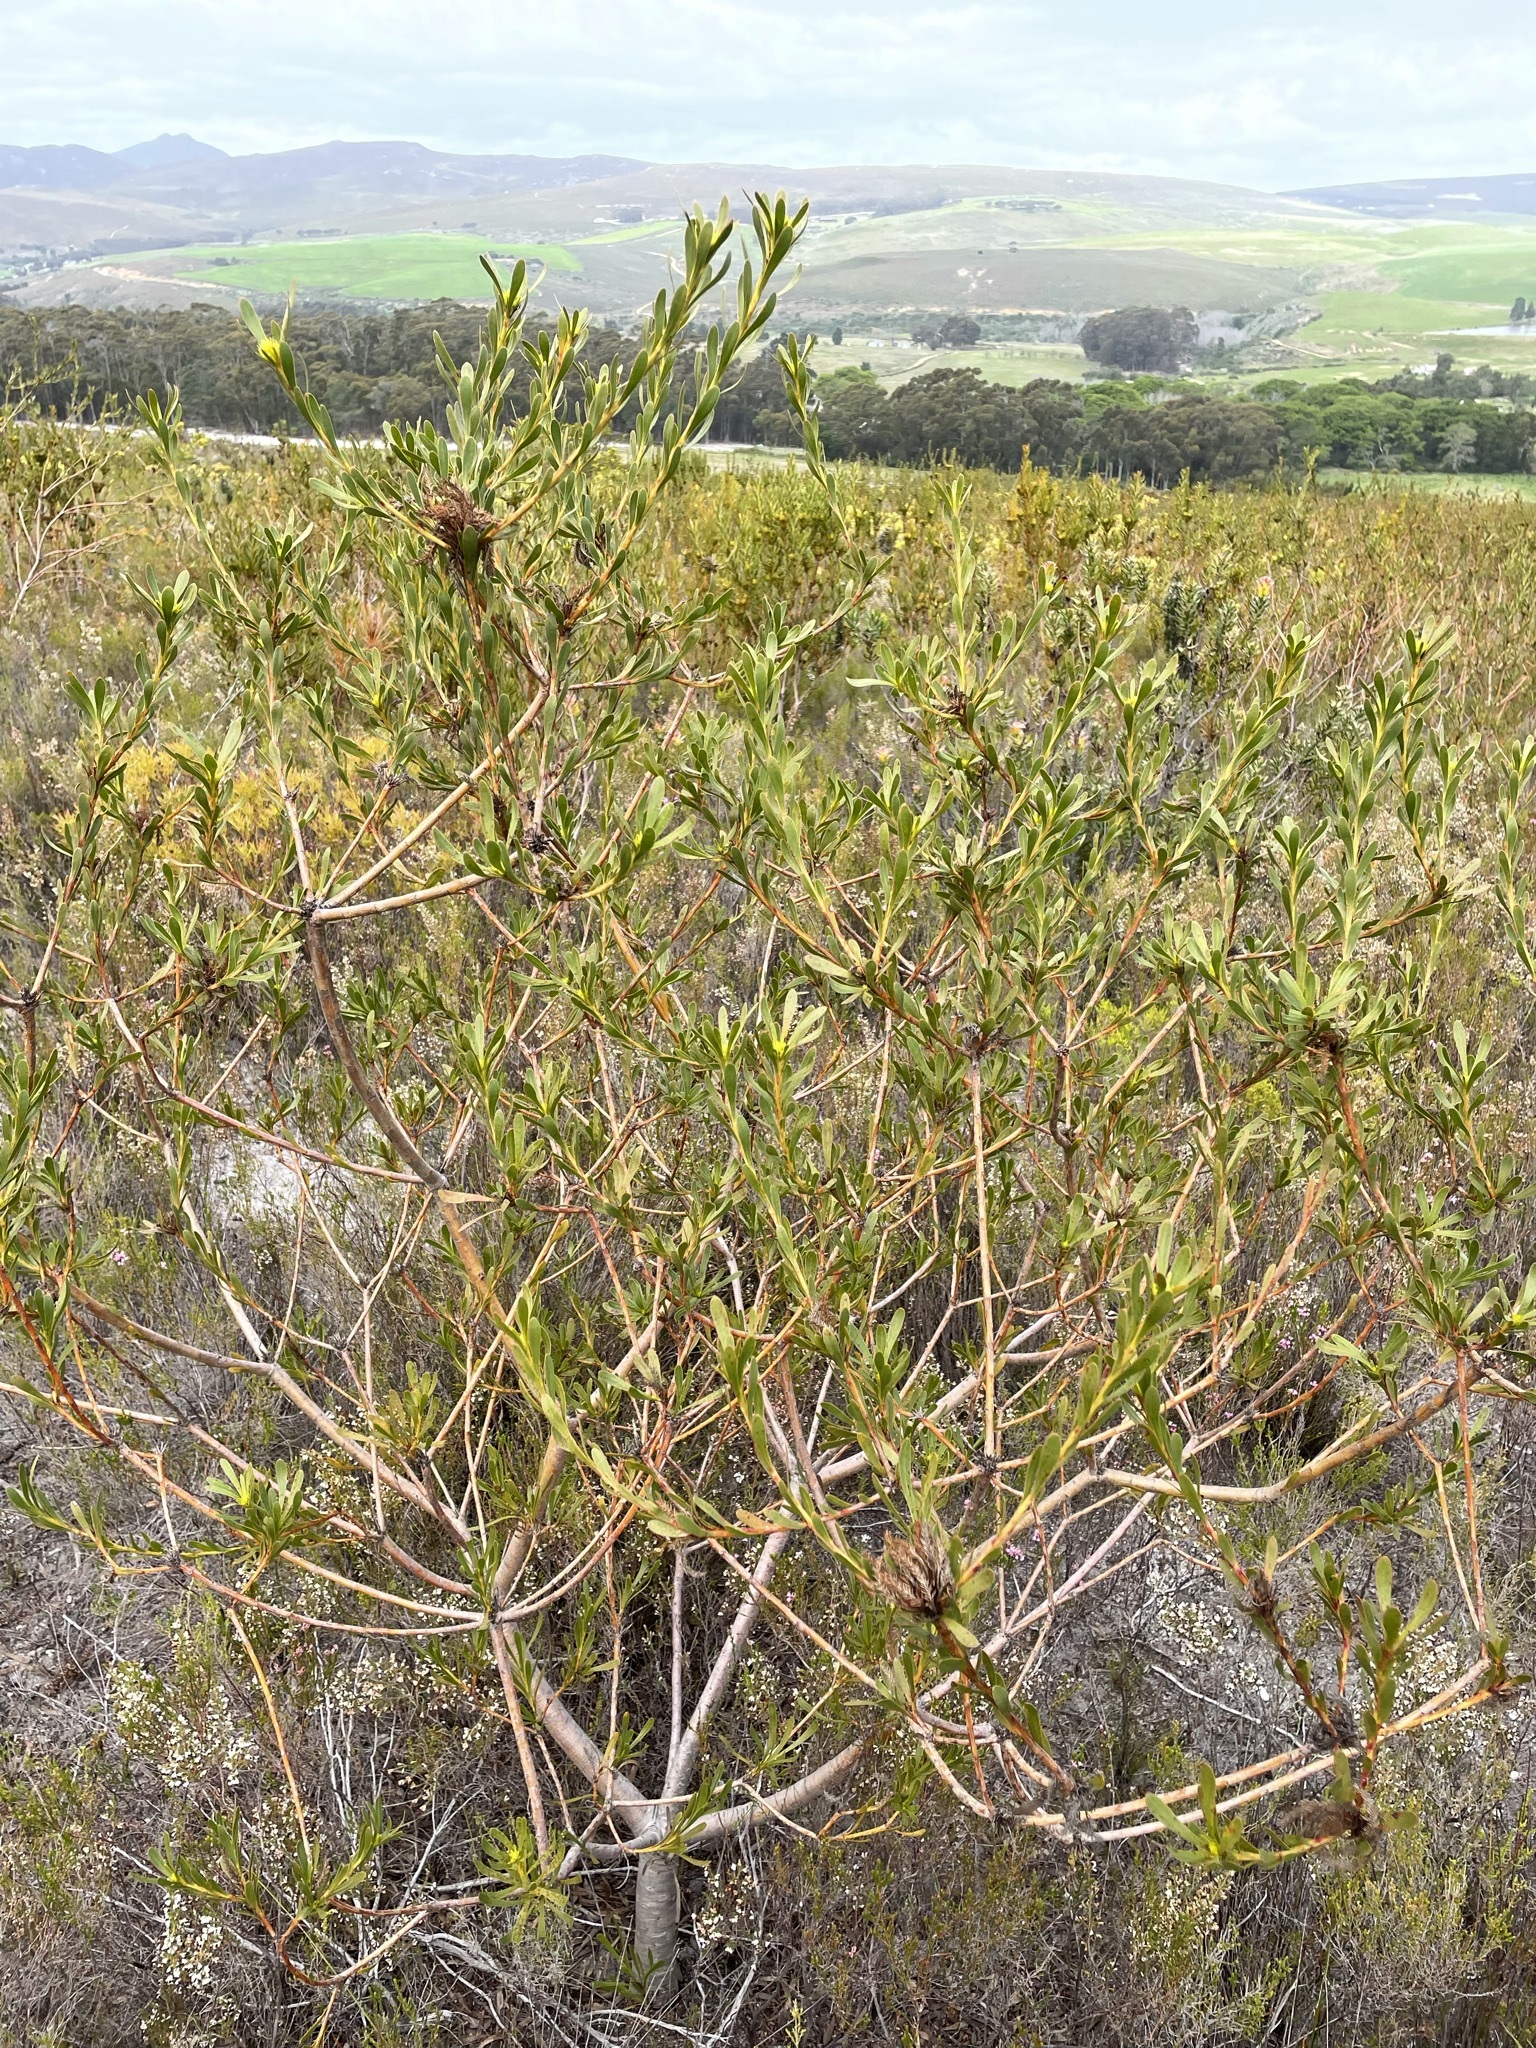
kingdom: Plantae
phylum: Tracheophyta
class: Magnoliopsida
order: Proteales
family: Proteaceae
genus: Aulax
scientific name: Aulax umbellata
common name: Broad-leaf featherbush
